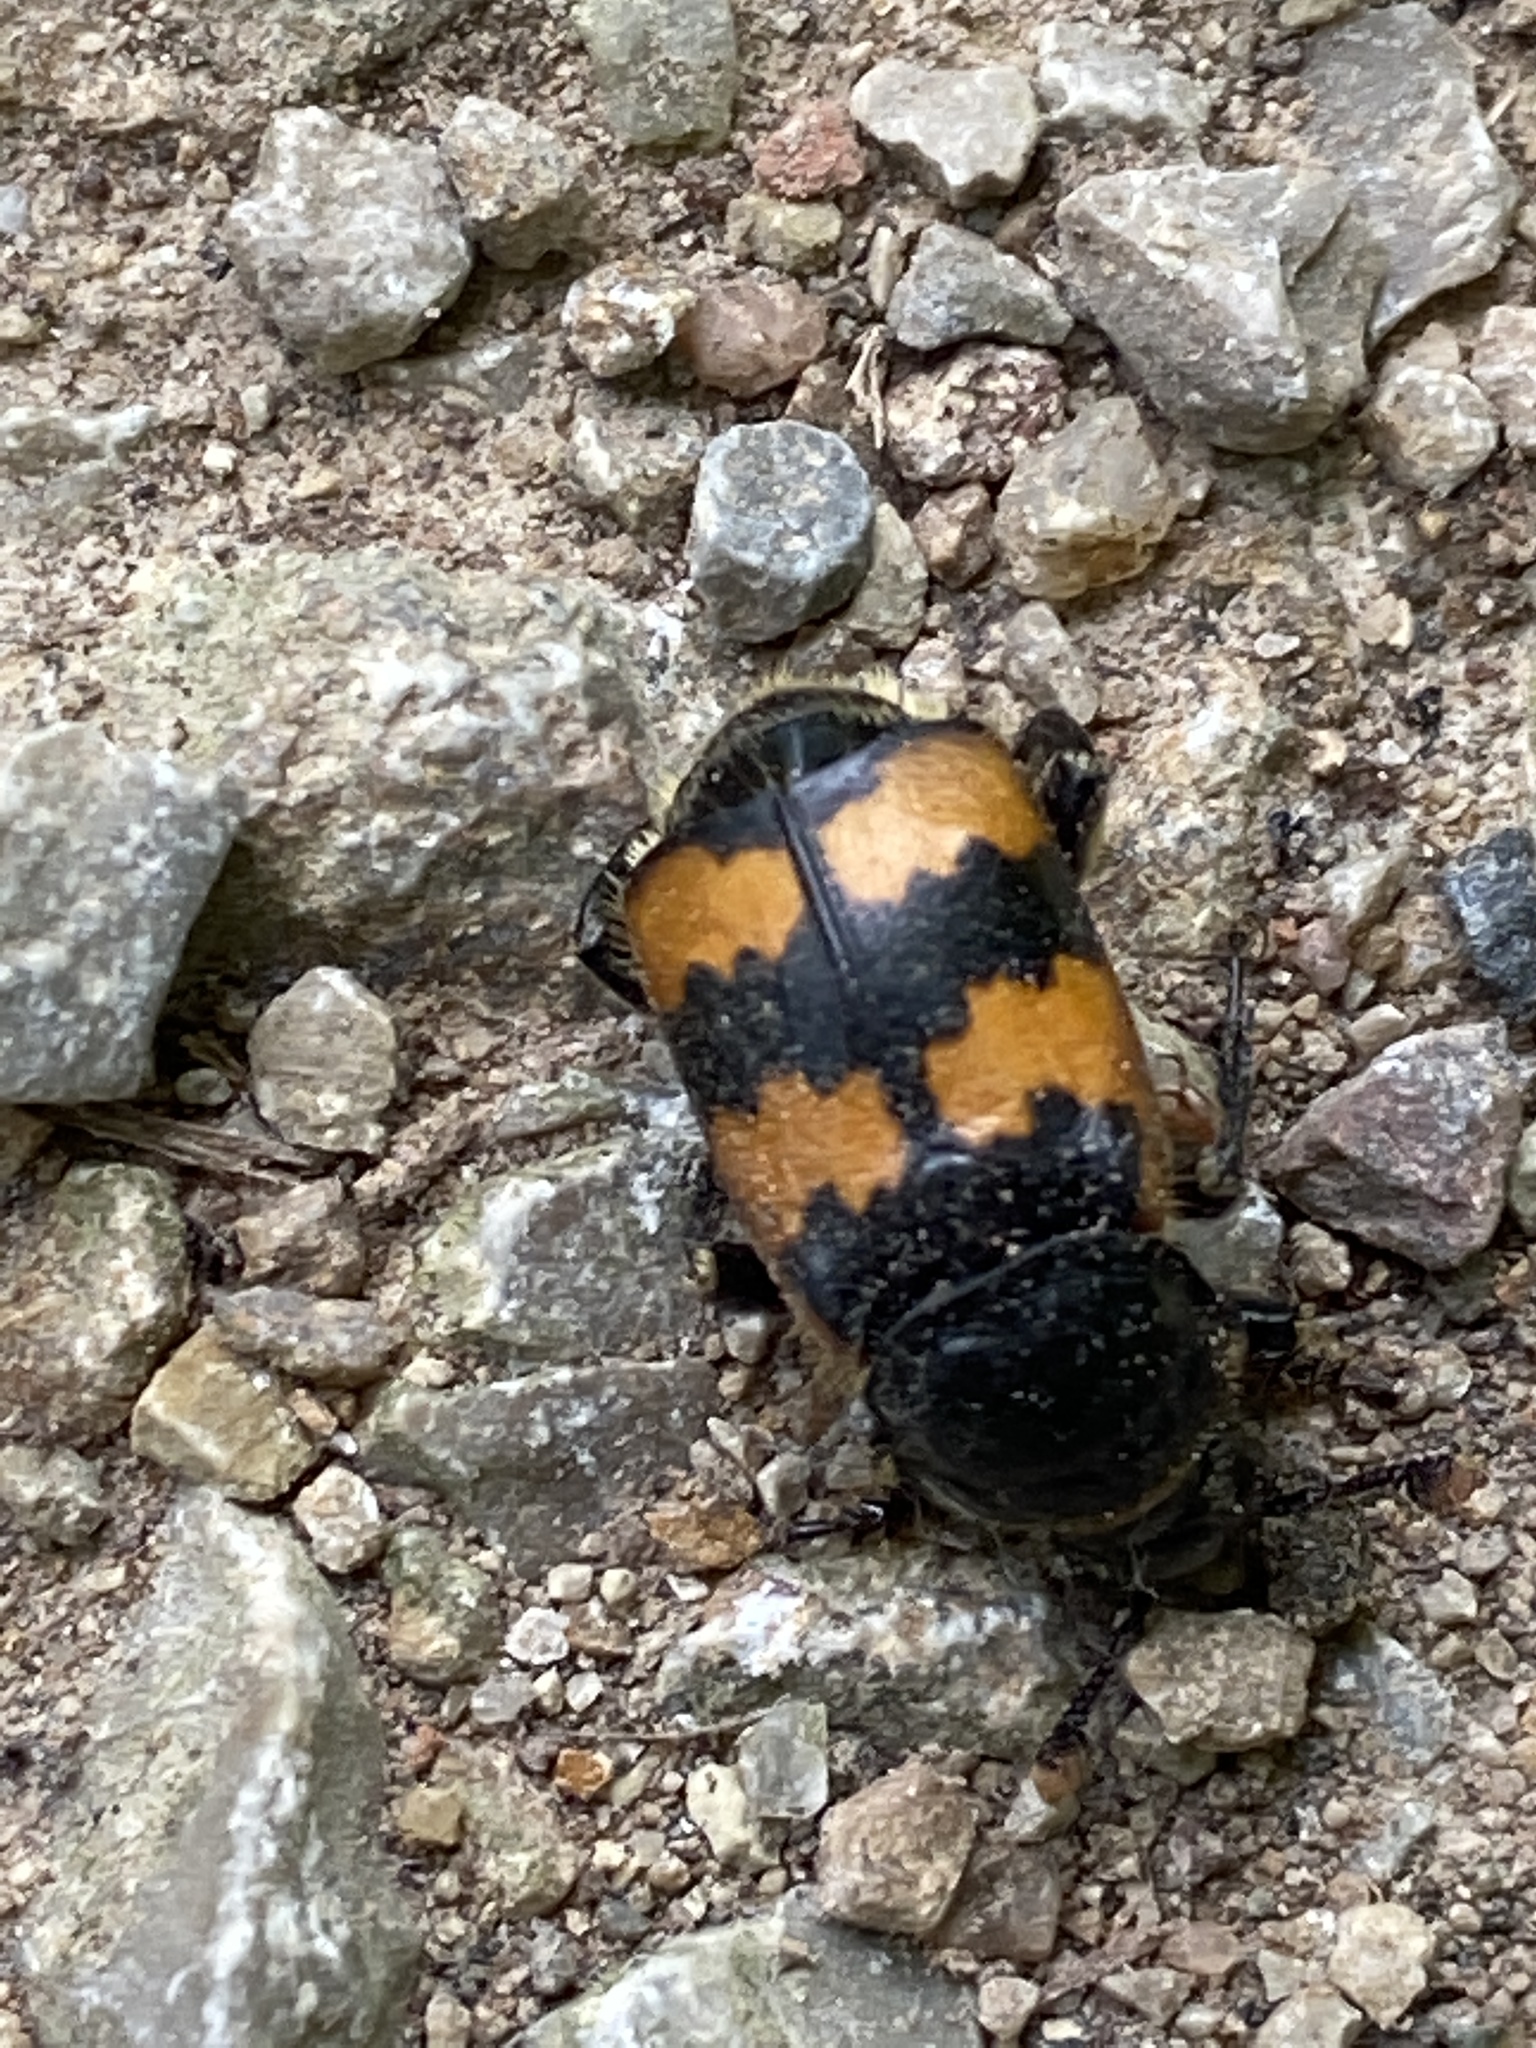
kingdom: Animalia
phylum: Arthropoda
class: Insecta
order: Coleoptera
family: Staphylinidae
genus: Nicrophorus
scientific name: Nicrophorus vespillo
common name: Common burying beetle
